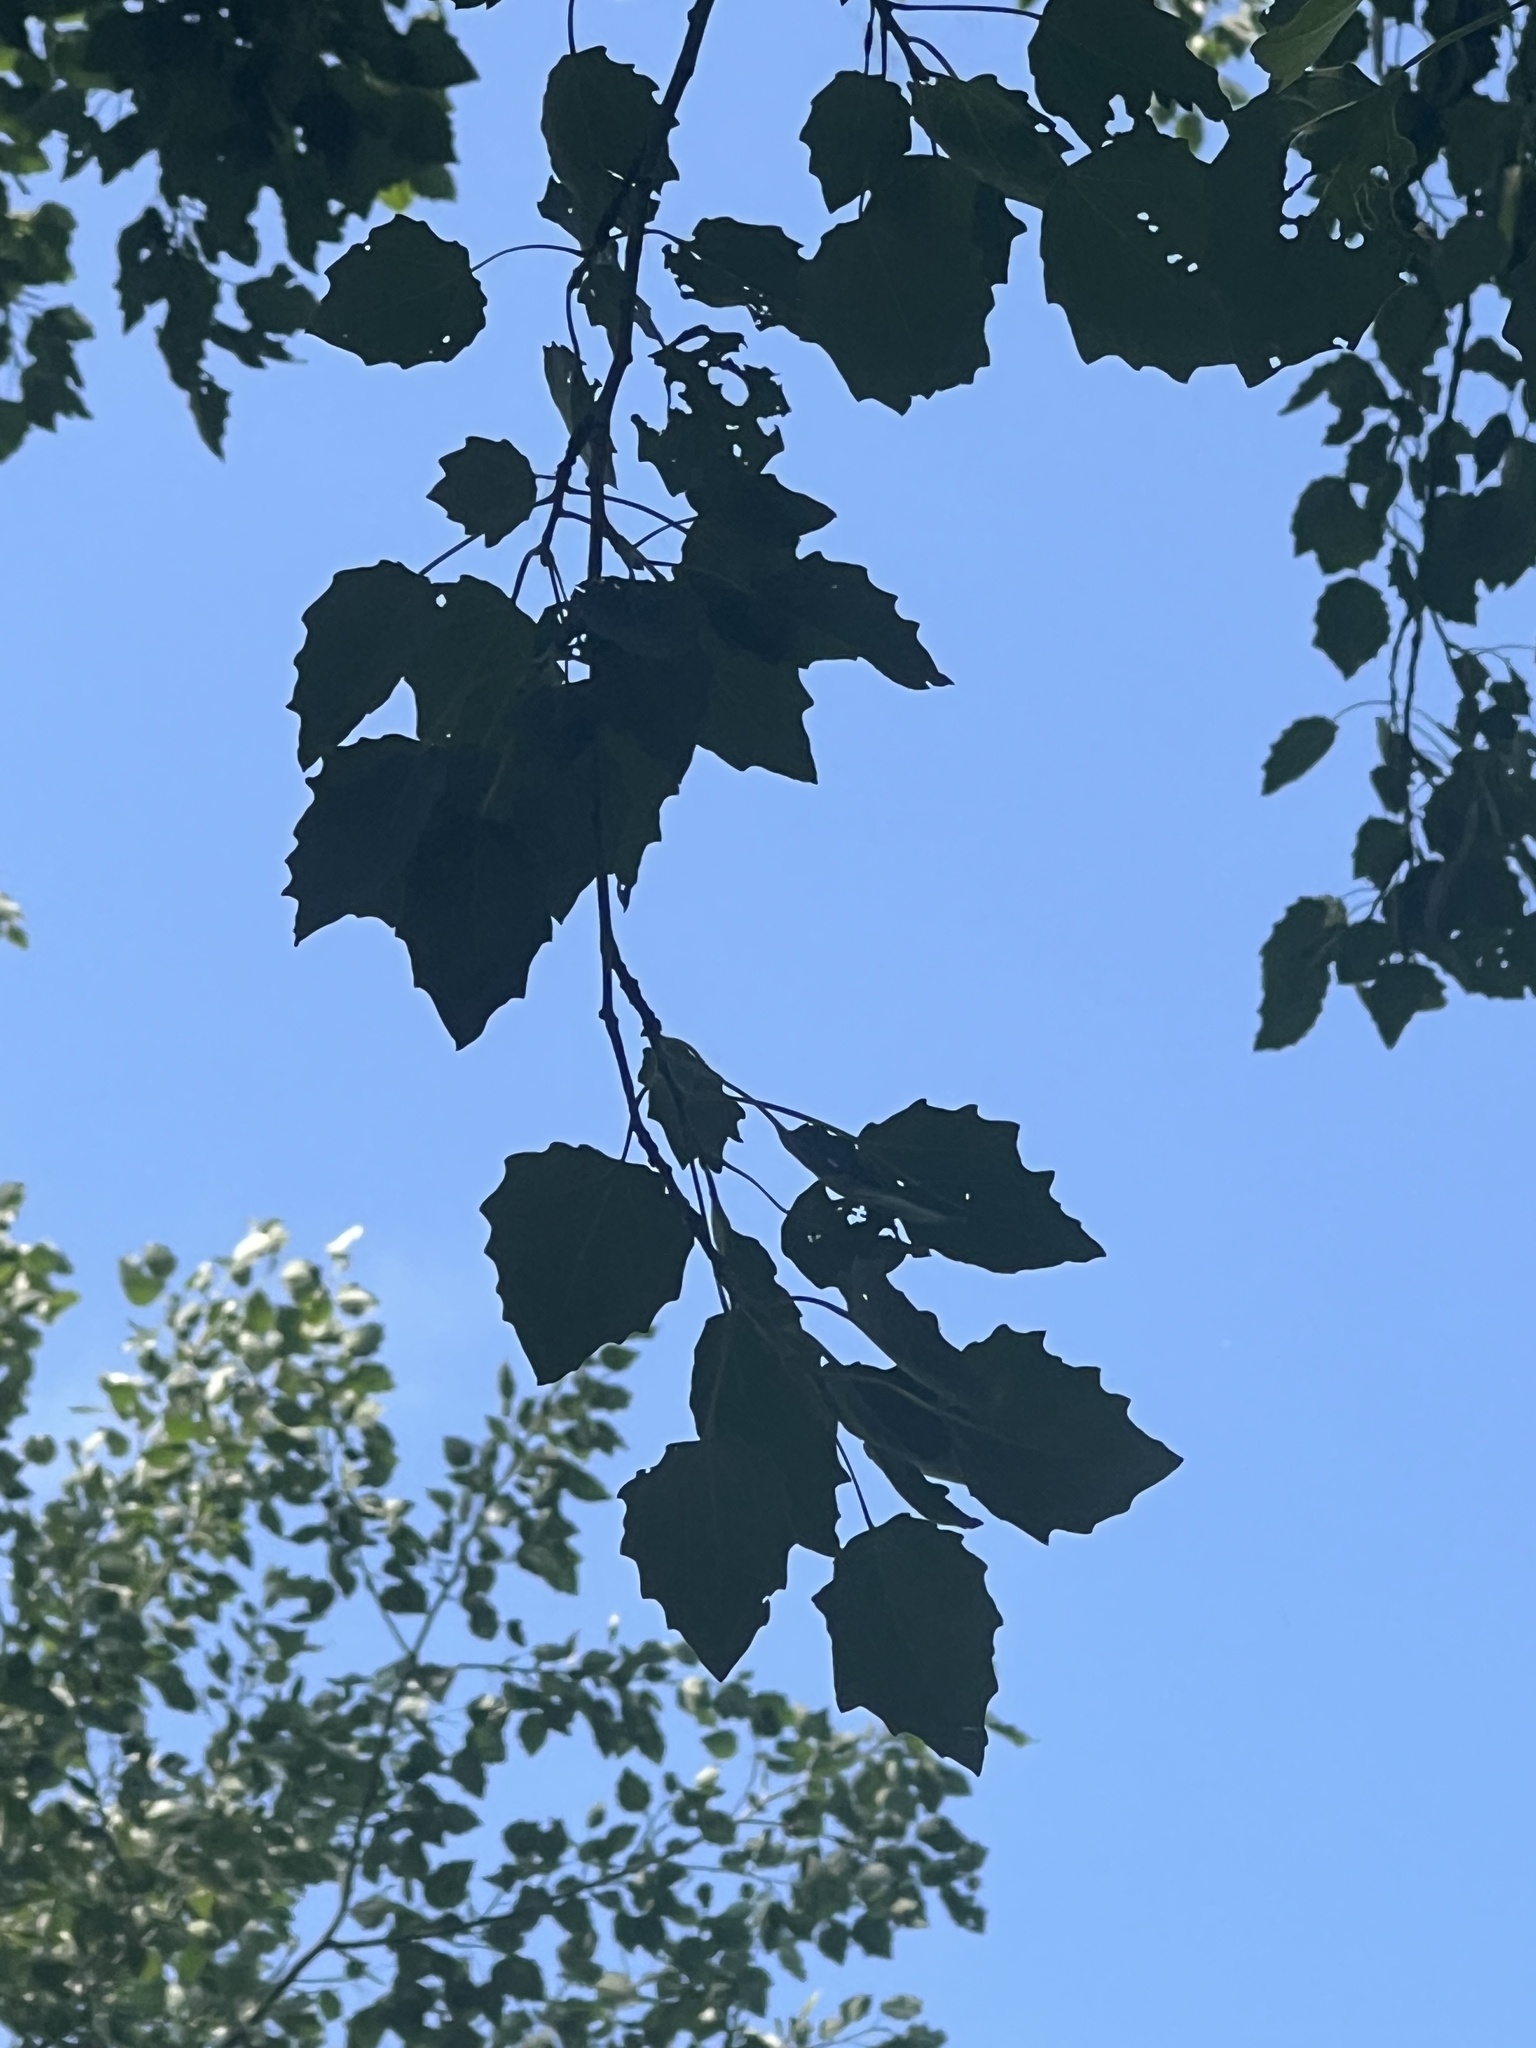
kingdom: Plantae
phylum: Tracheophyta
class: Magnoliopsida
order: Malpighiales
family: Salicaceae
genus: Populus
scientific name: Populus grandidentata
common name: Bigtooth aspen
